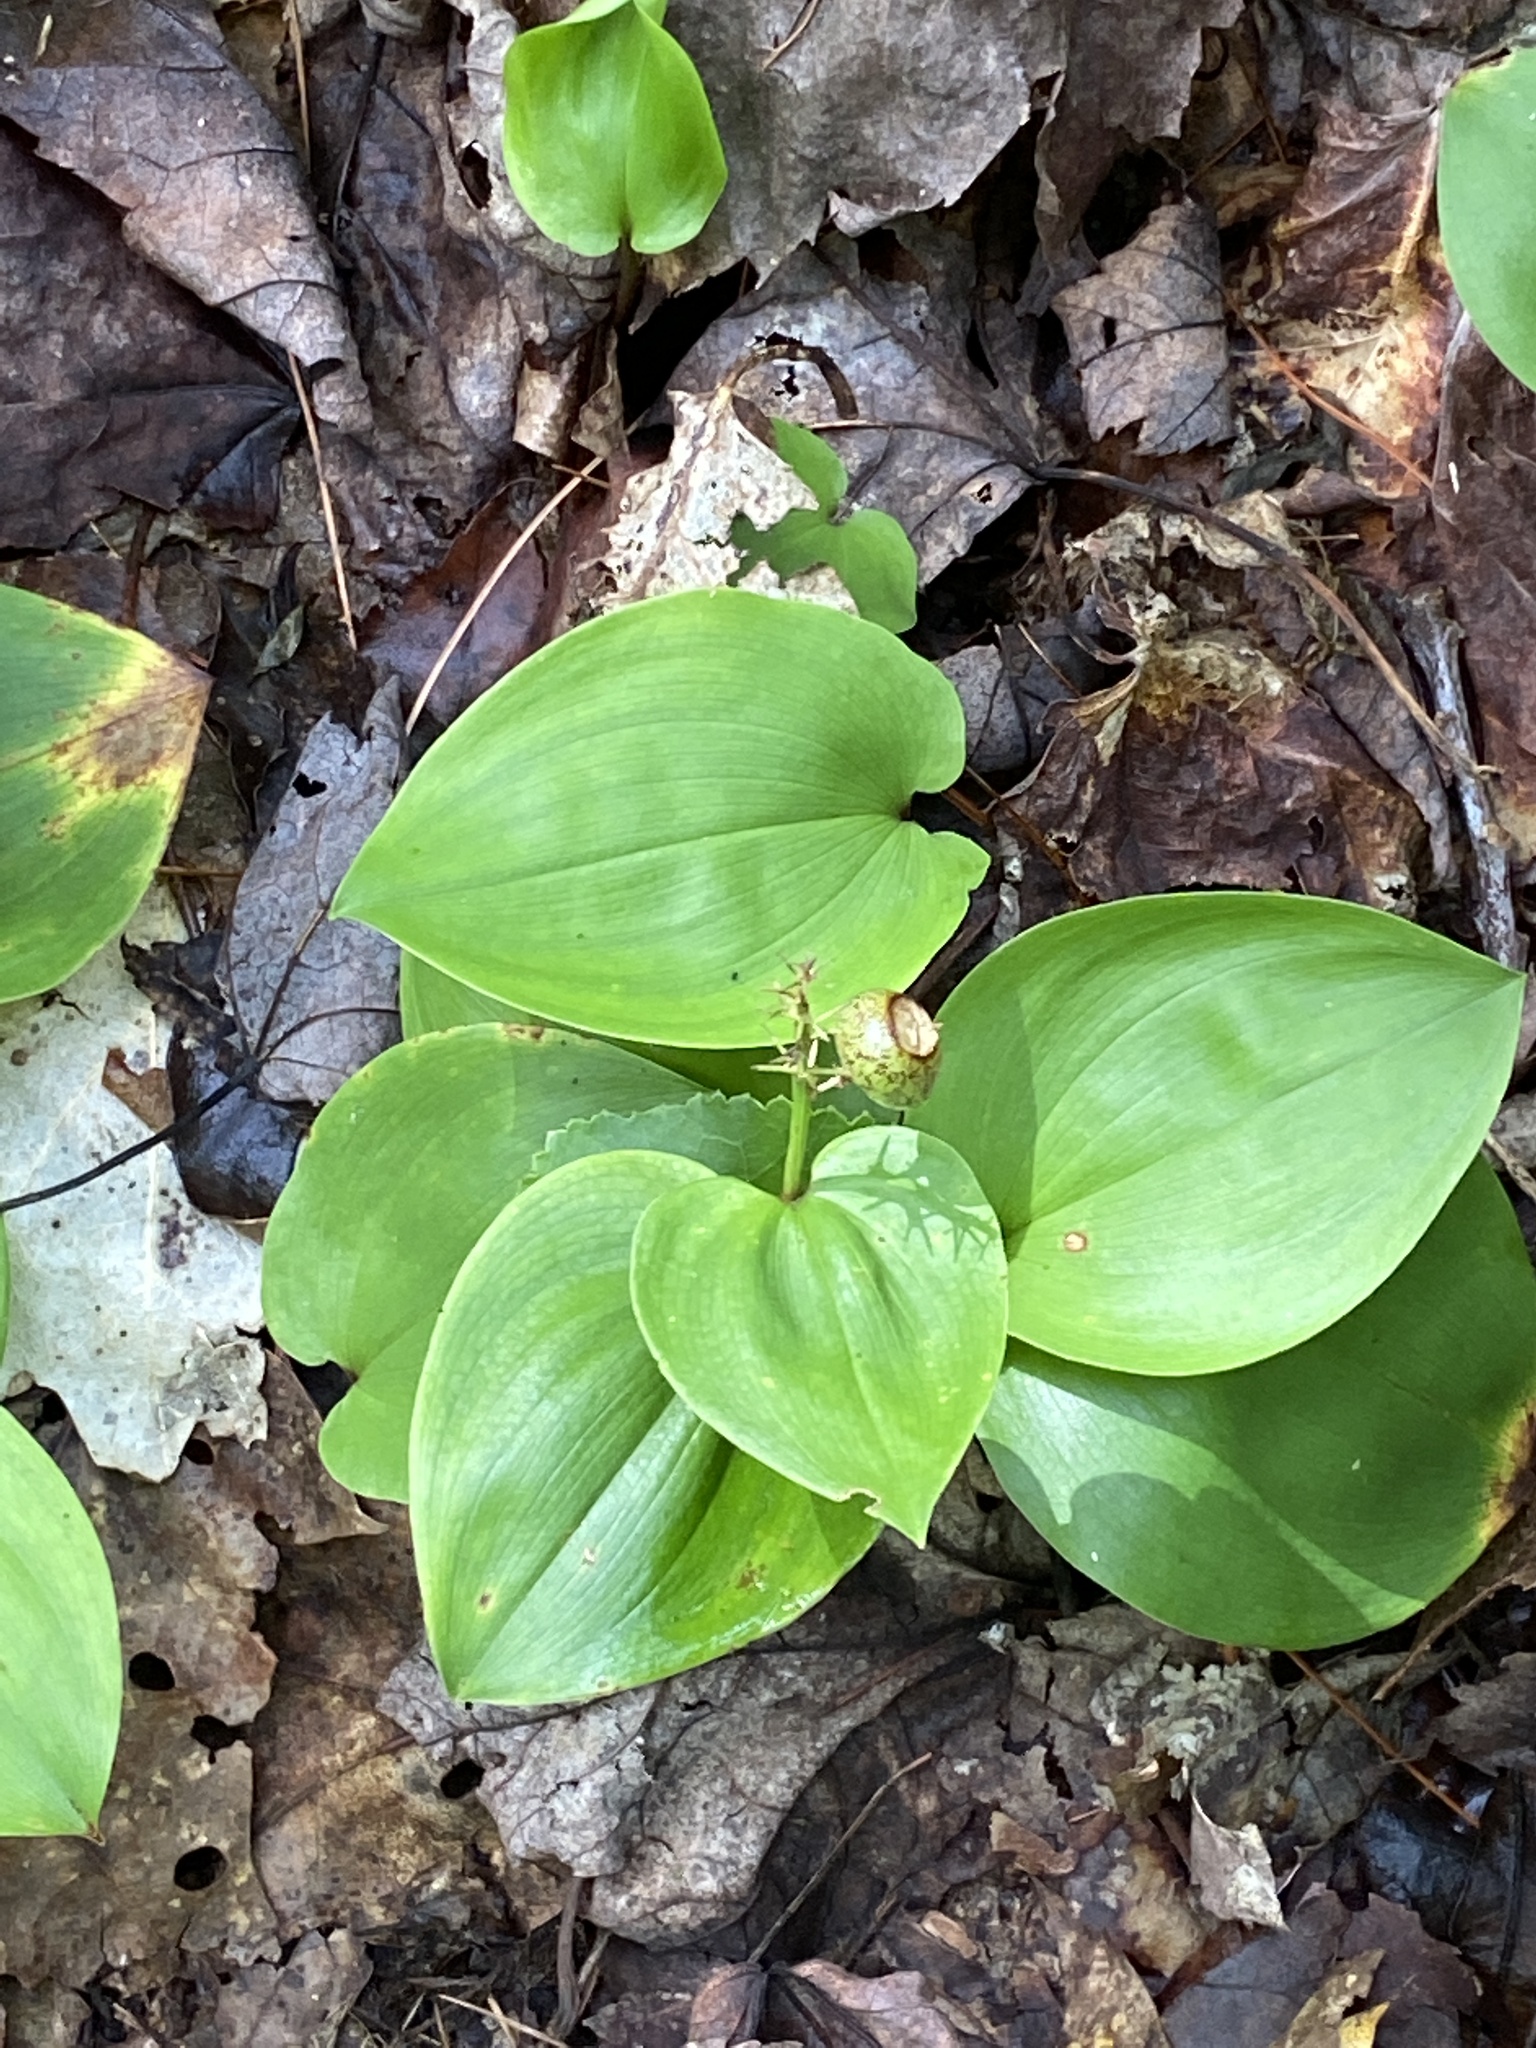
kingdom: Plantae
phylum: Tracheophyta
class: Liliopsida
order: Asparagales
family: Asparagaceae
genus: Maianthemum
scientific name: Maianthemum canadense
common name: False lily-of-the-valley
